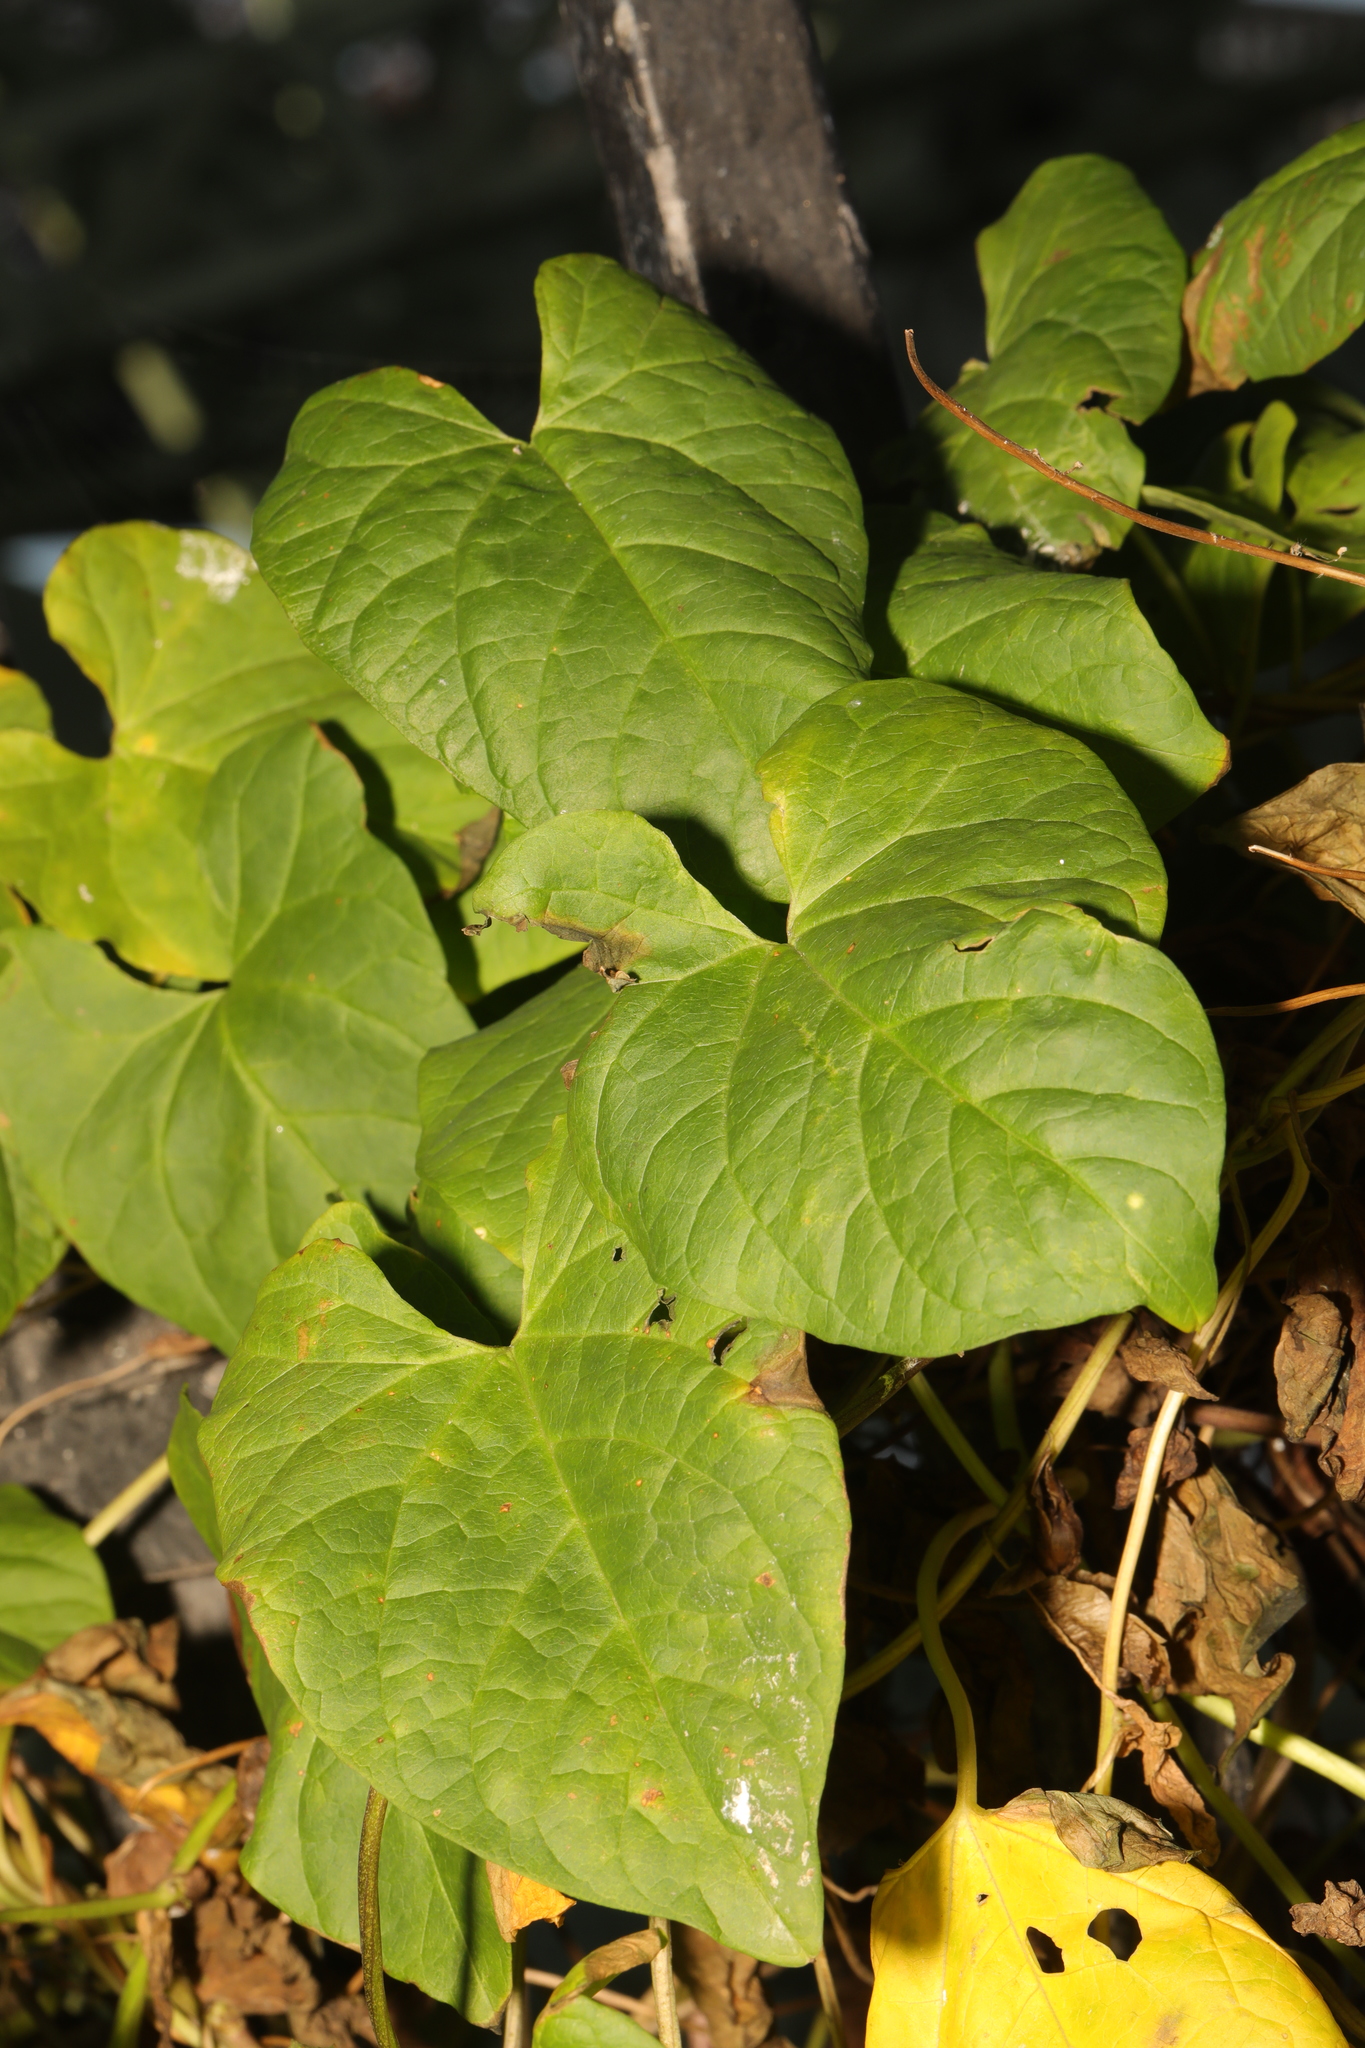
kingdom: Plantae
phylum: Tracheophyta
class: Magnoliopsida
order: Solanales
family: Convolvulaceae
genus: Calystegia
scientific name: Calystegia
